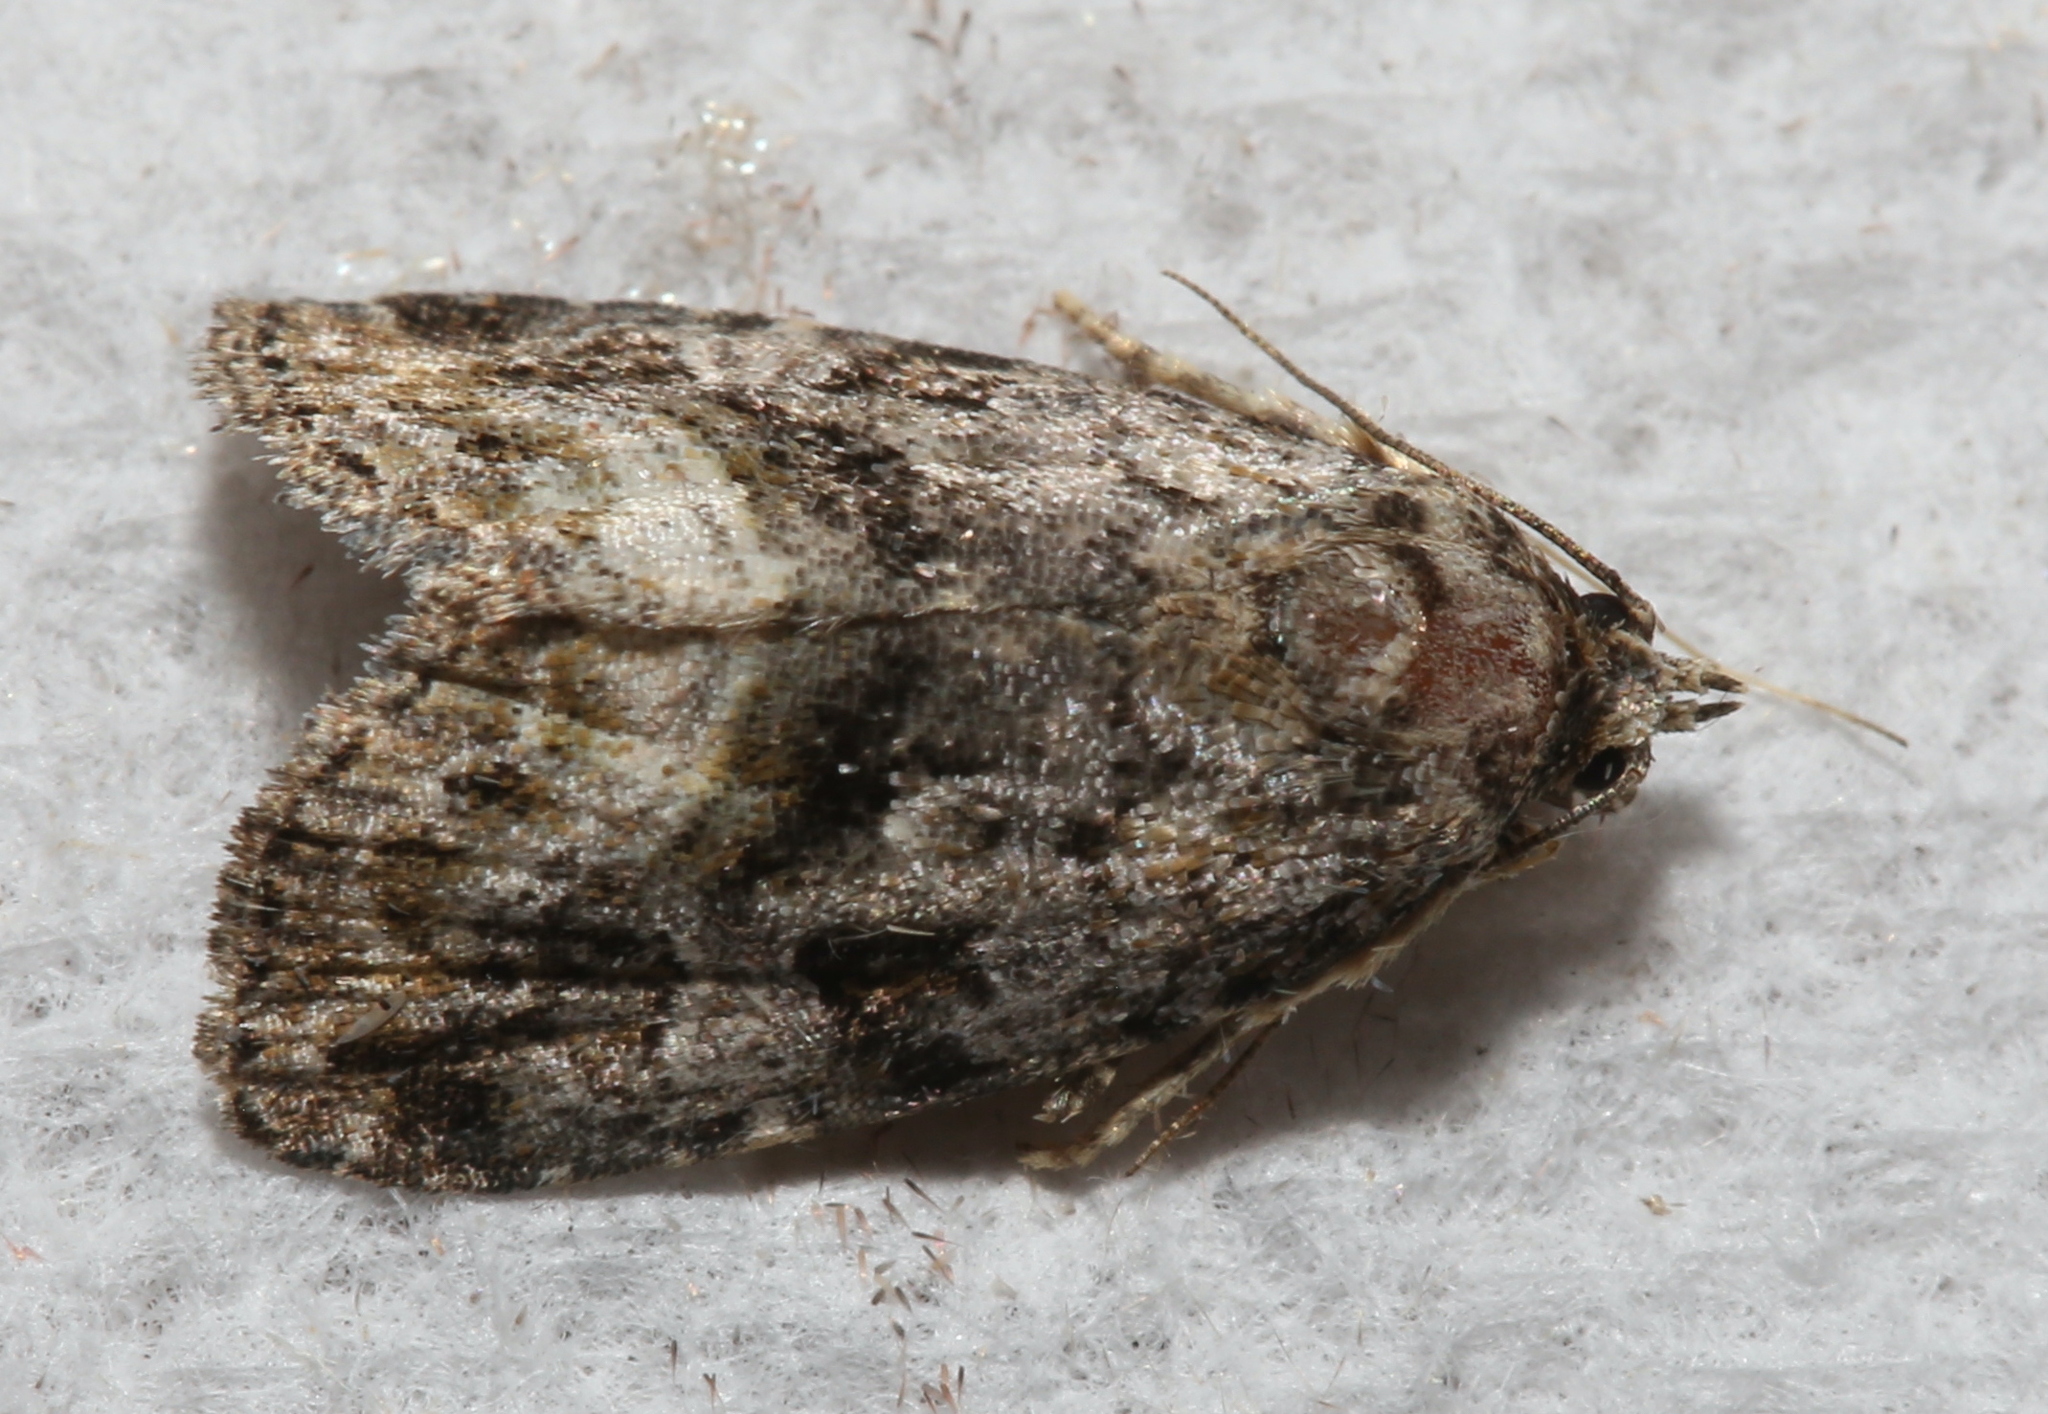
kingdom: Animalia
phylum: Arthropoda
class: Insecta
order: Lepidoptera
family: Noctuidae
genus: Protodeltote
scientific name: Protodeltote muscosula
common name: Large mossy glyph
